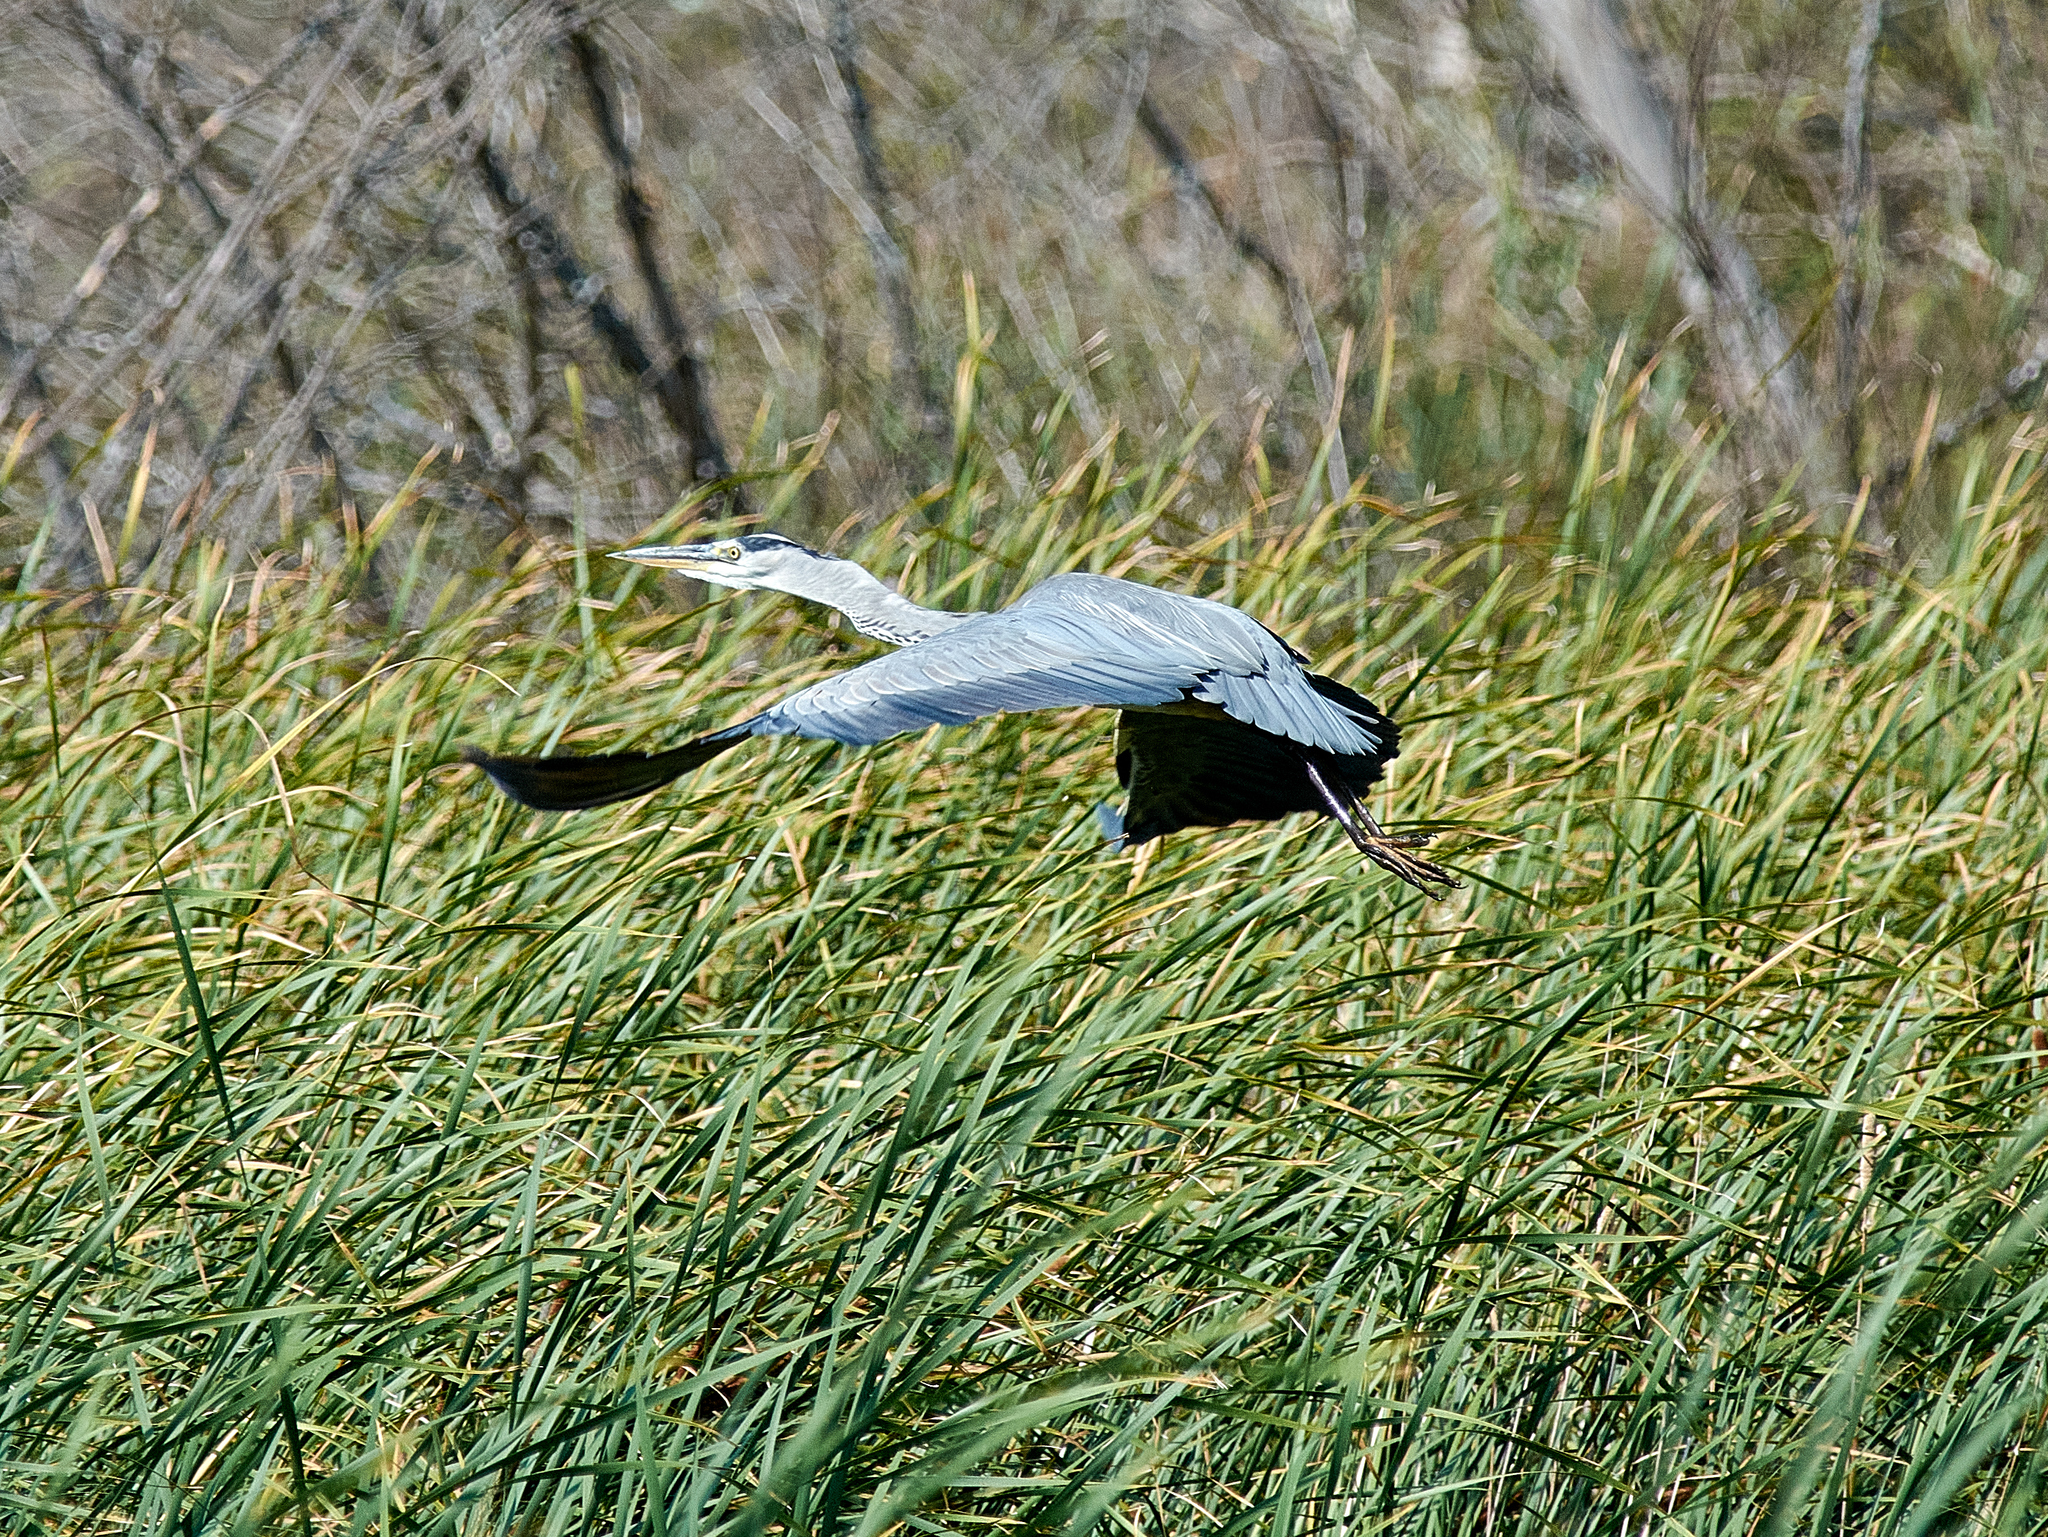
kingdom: Animalia
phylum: Chordata
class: Aves
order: Pelecaniformes
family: Ardeidae
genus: Ardea
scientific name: Ardea cinerea
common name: Grey heron
